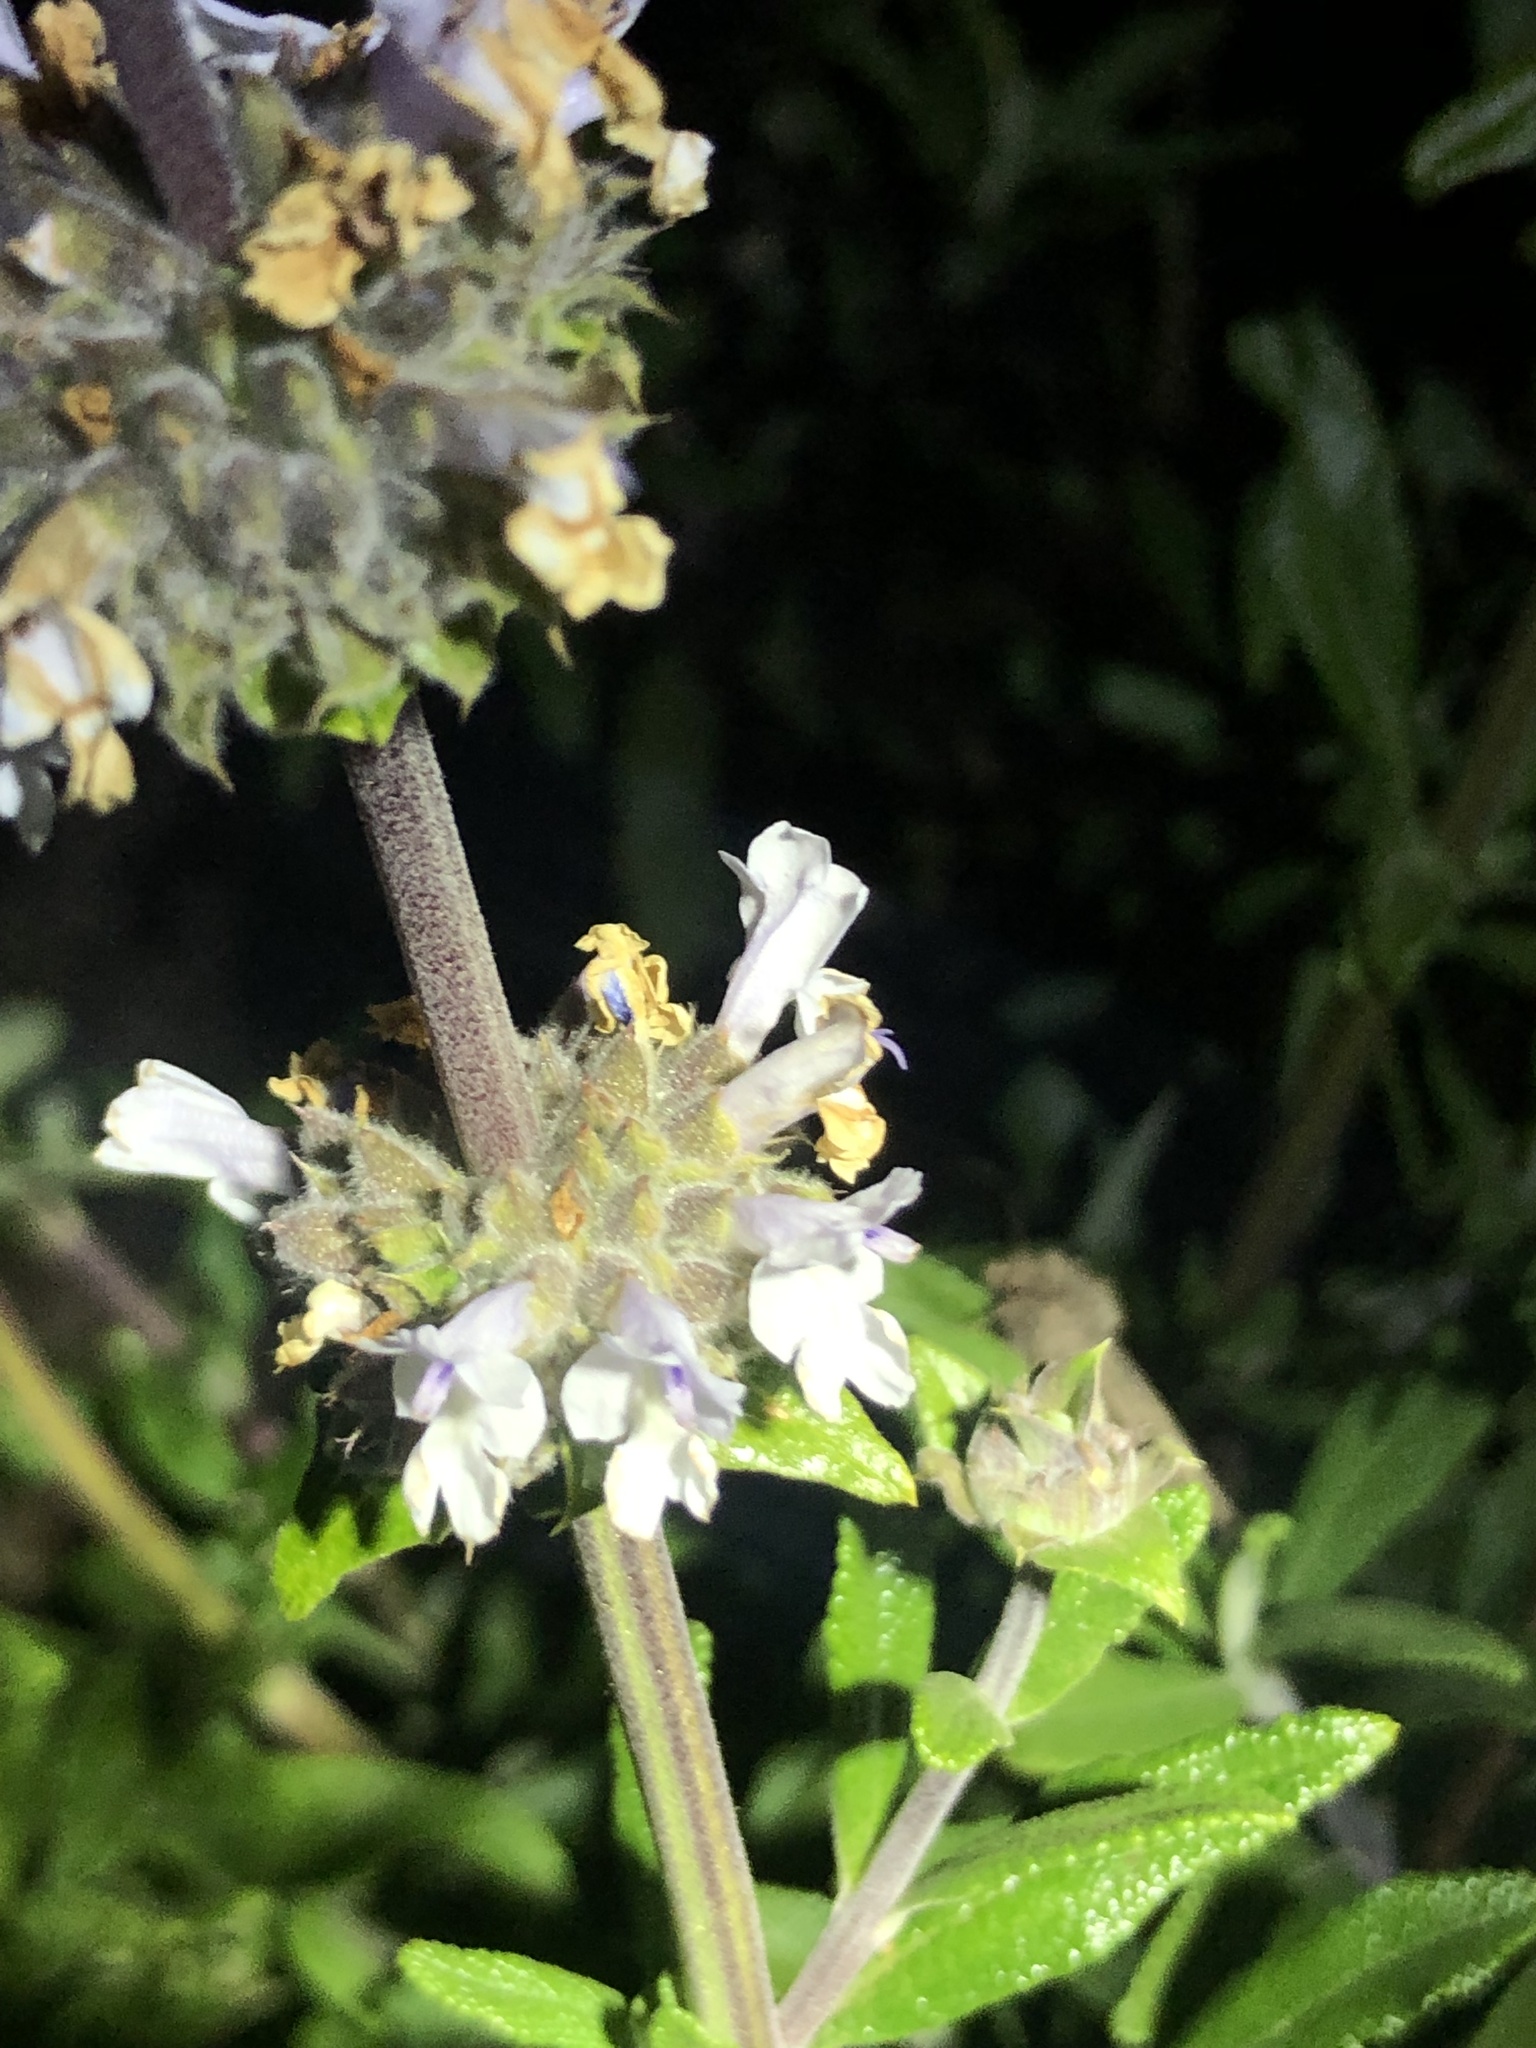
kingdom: Plantae
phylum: Tracheophyta
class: Magnoliopsida
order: Lamiales
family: Lamiaceae
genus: Salvia
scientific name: Salvia mellifera
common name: Black sage
